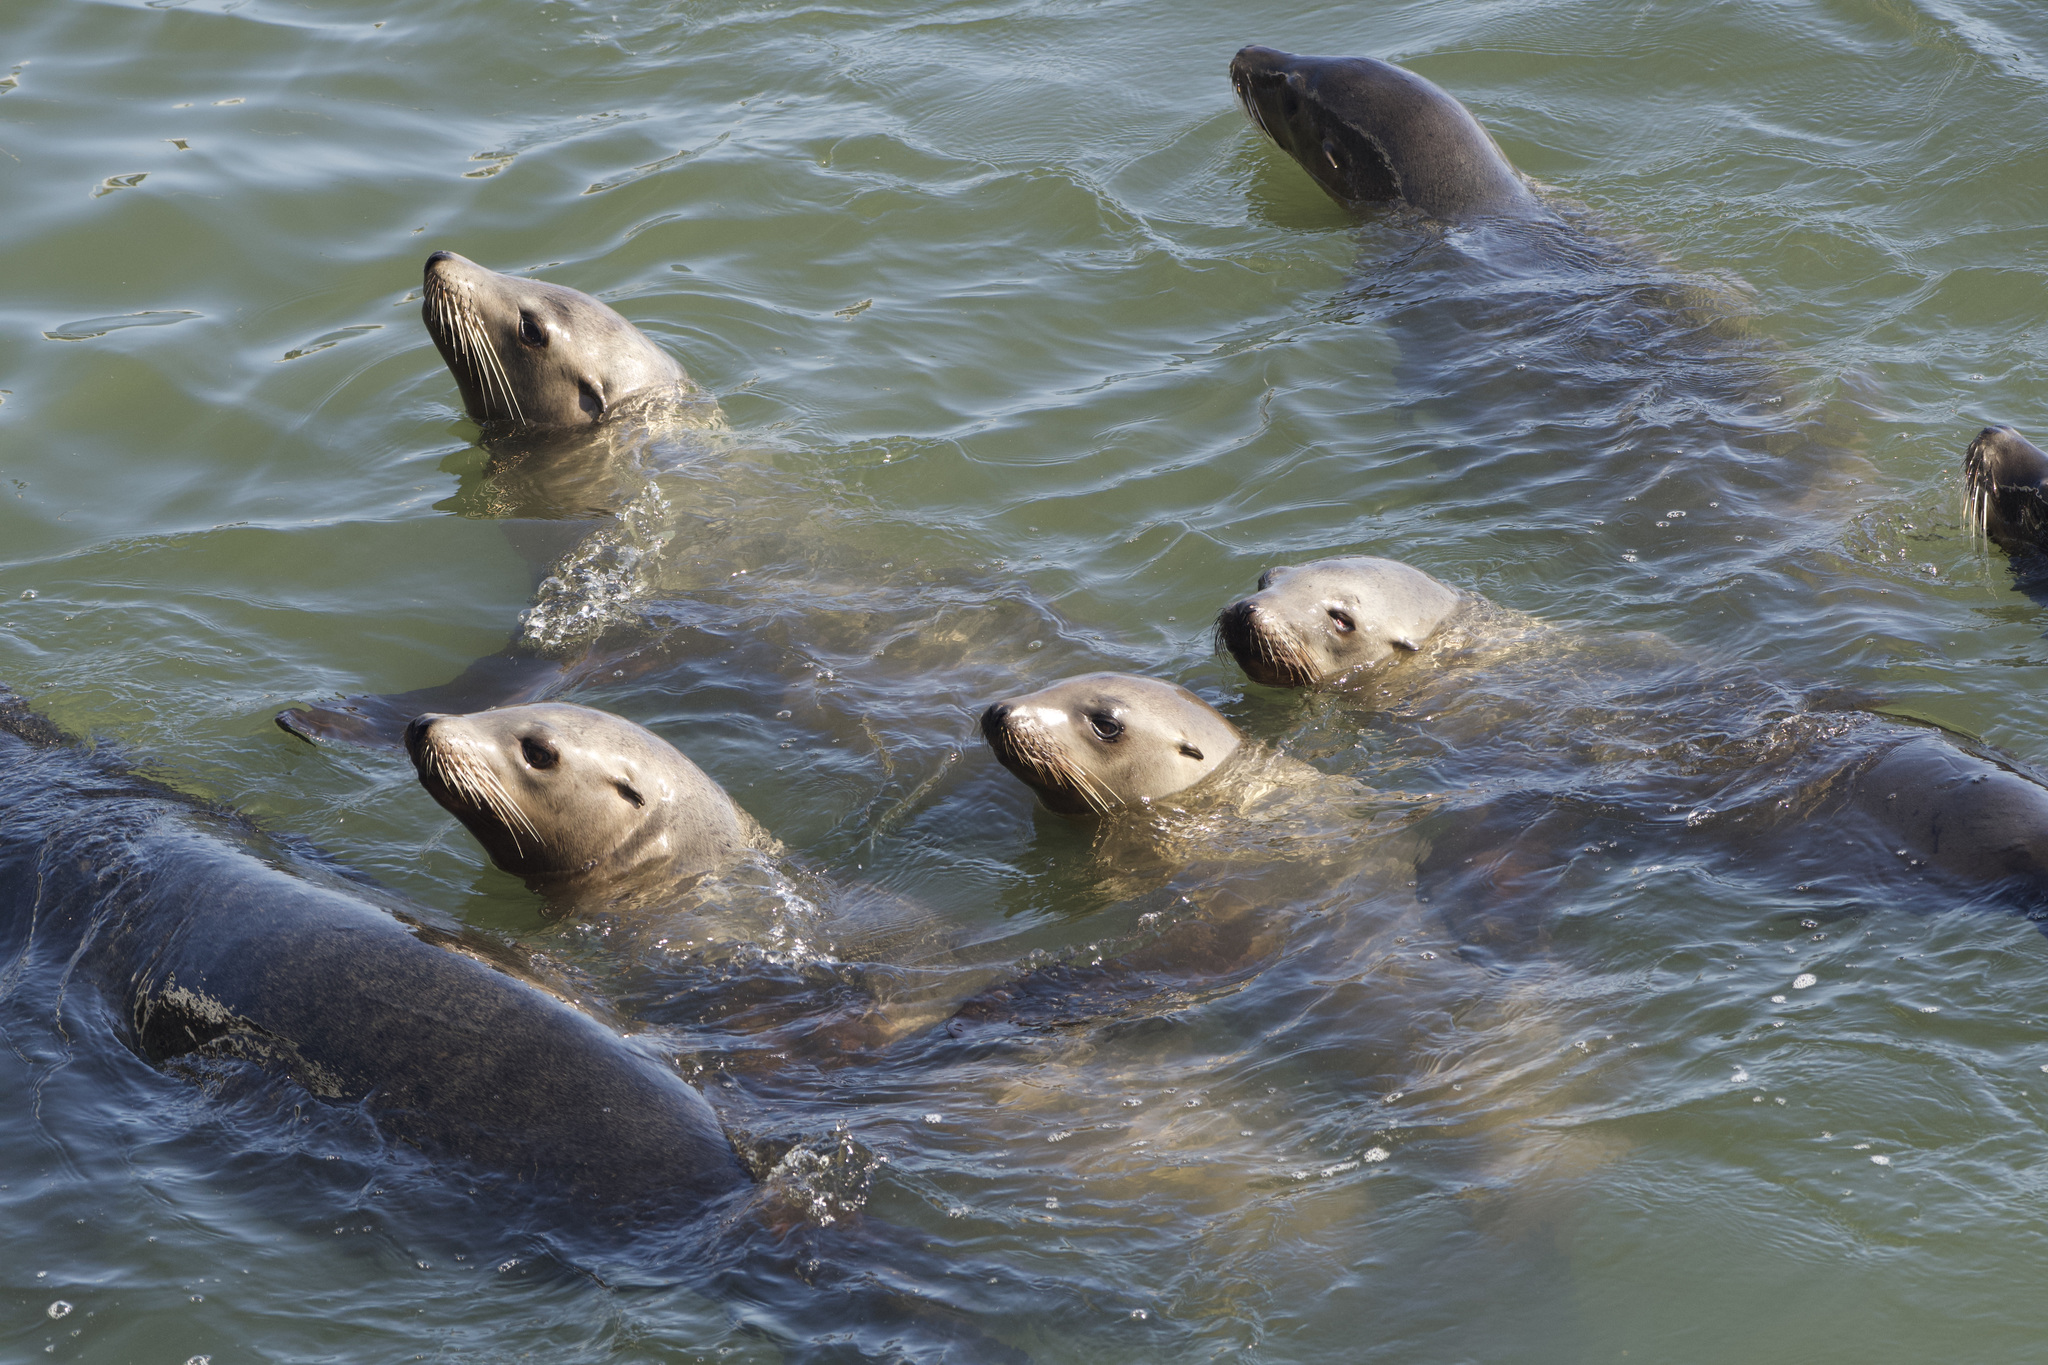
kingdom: Animalia
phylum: Chordata
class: Mammalia
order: Carnivora
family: Otariidae
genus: Zalophus
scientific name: Zalophus californianus
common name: California sea lion
